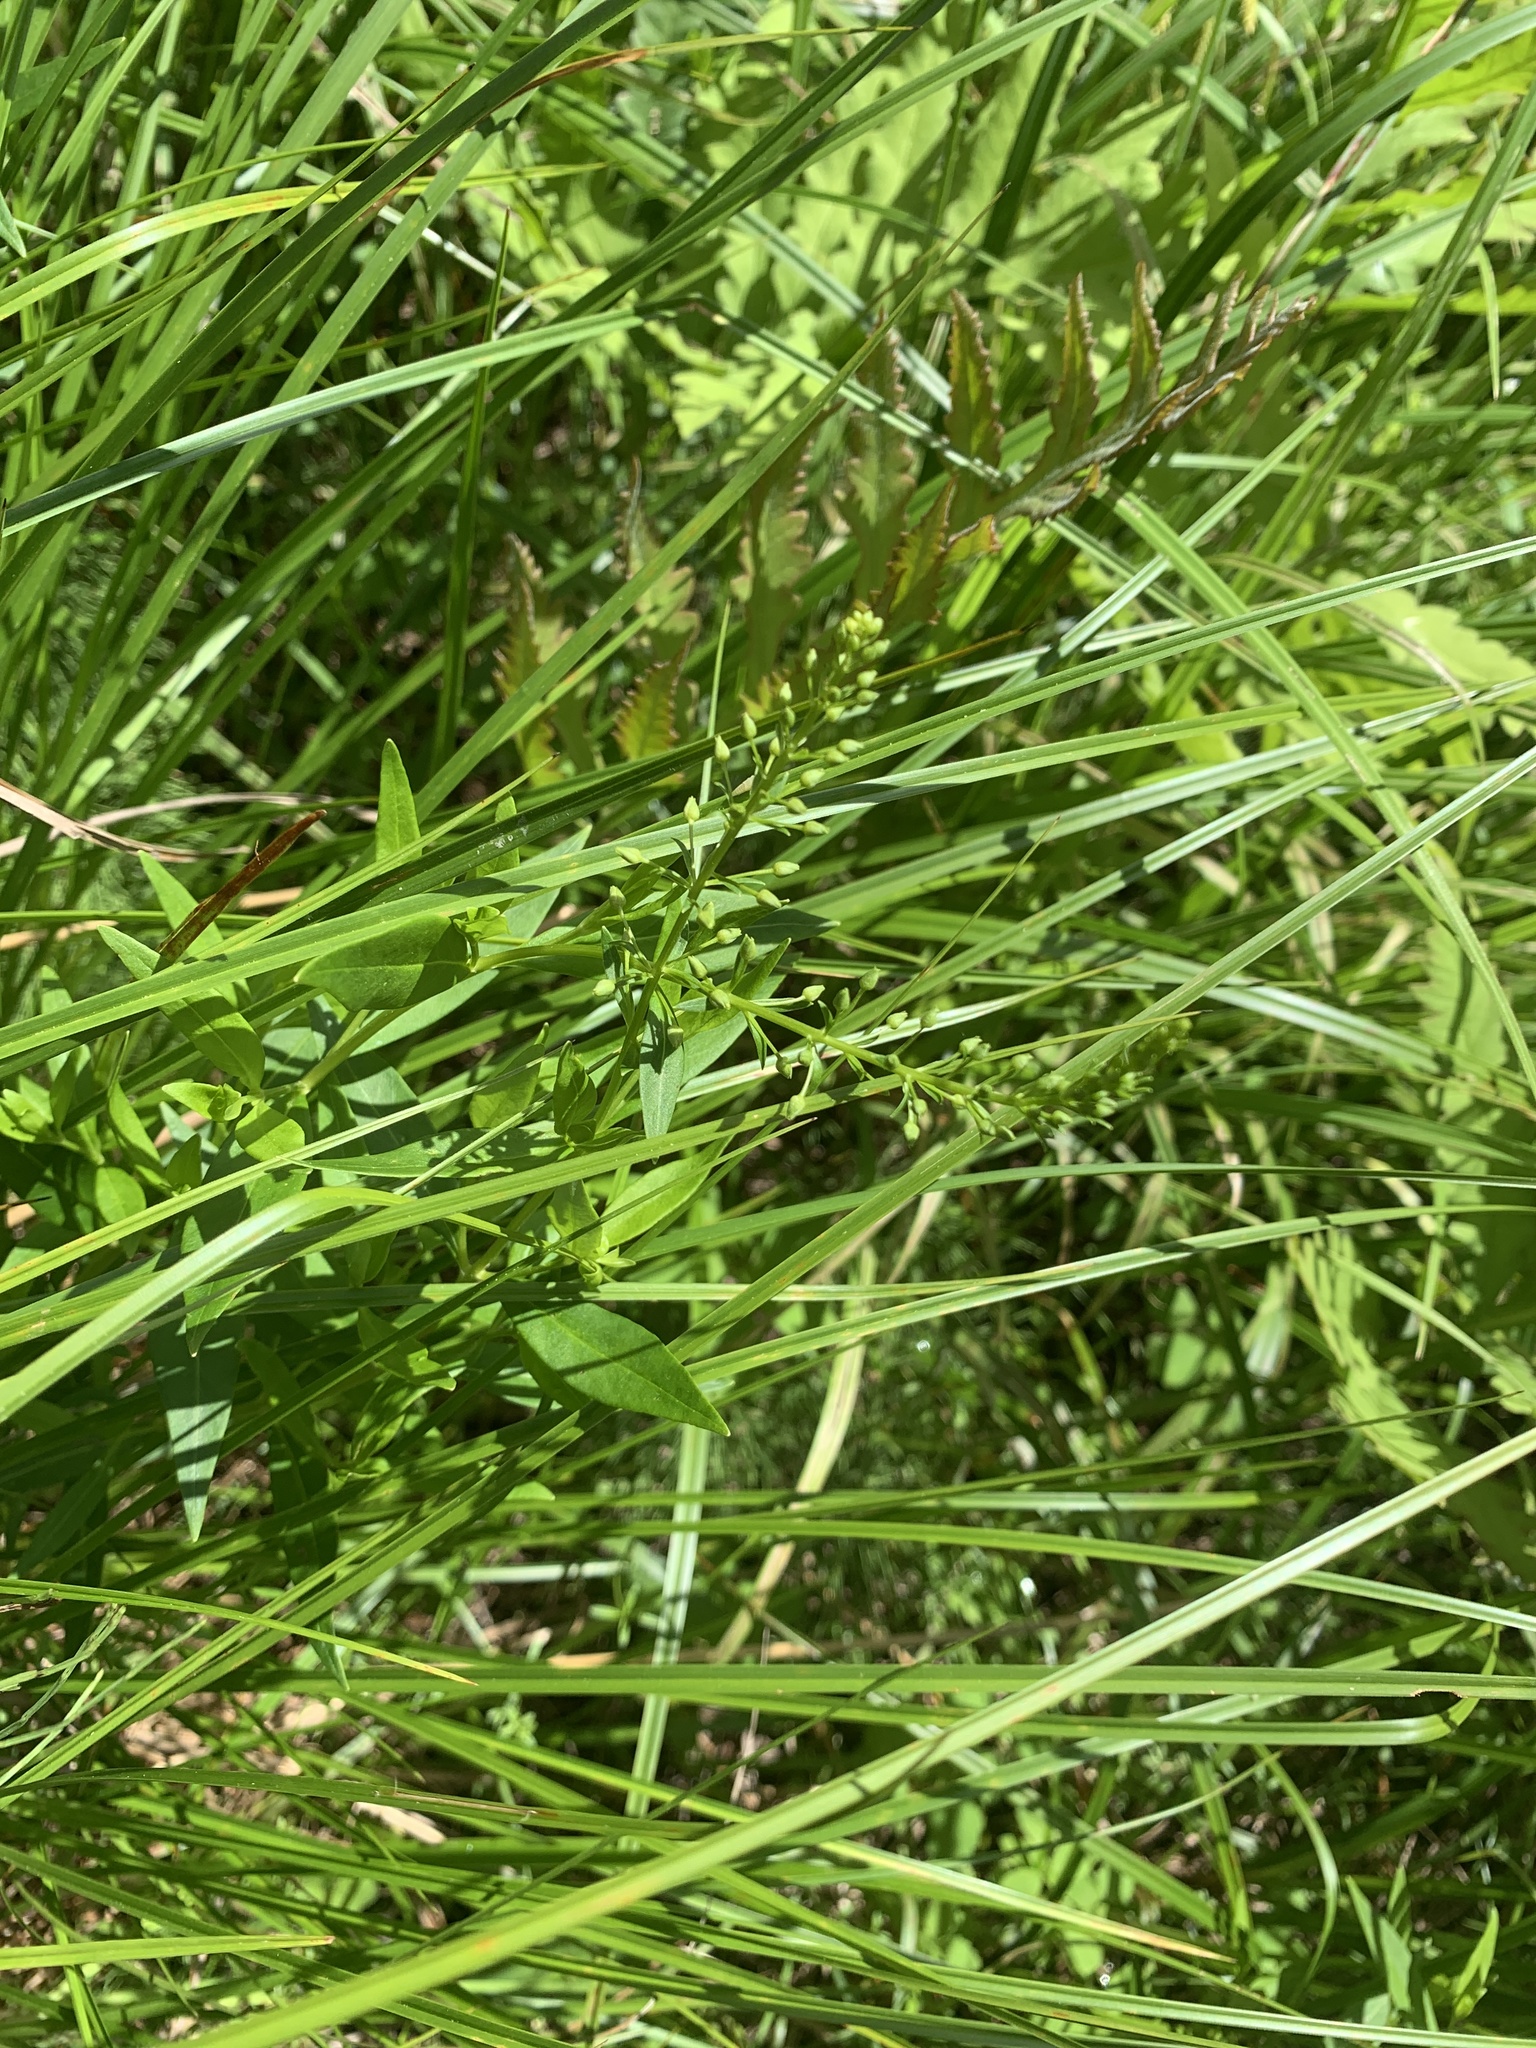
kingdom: Plantae
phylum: Tracheophyta
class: Magnoliopsida
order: Ericales
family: Primulaceae
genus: Lysimachia
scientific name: Lysimachia terrestris
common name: Lake loosestrife
